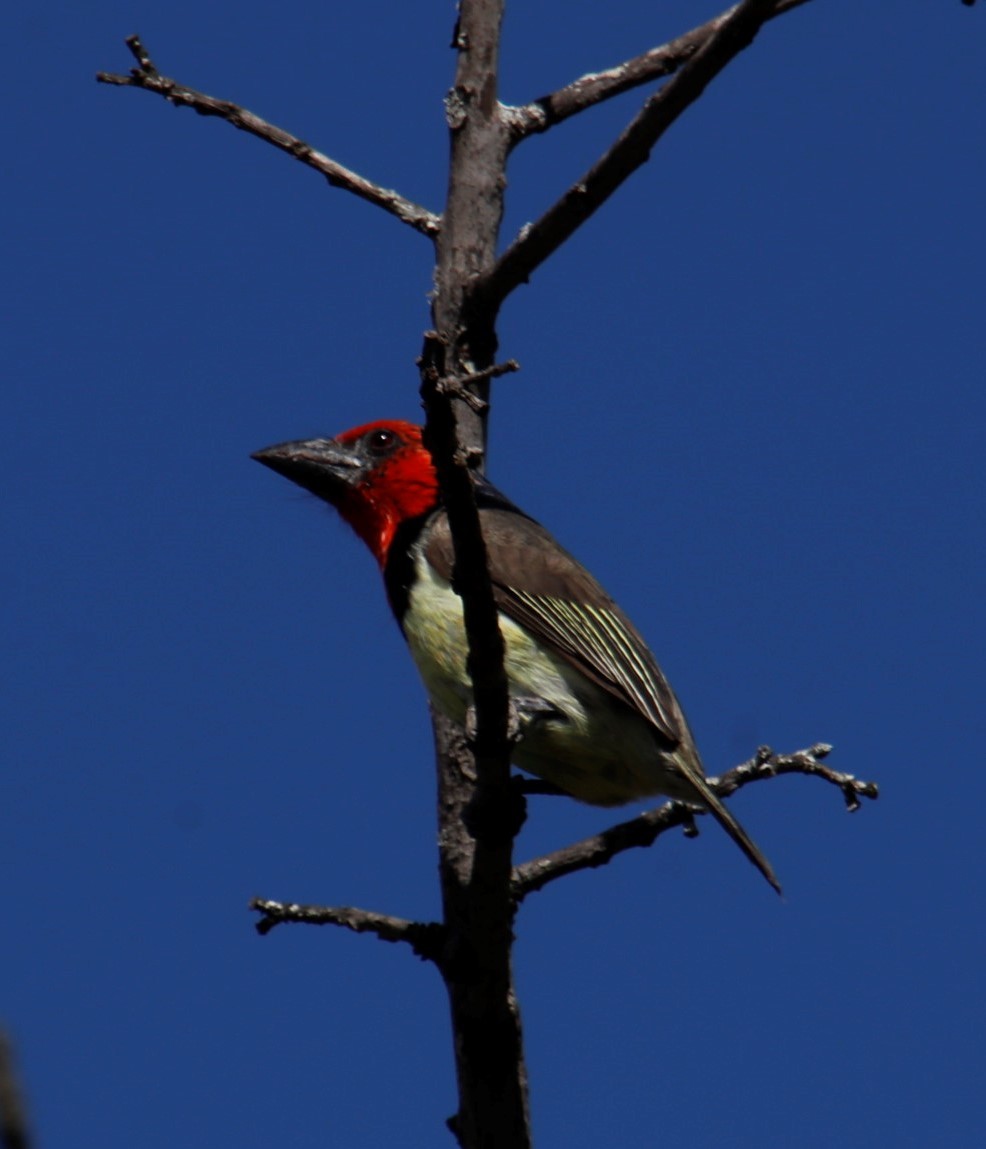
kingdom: Animalia
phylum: Chordata
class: Aves
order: Piciformes
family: Lybiidae
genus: Lybius
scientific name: Lybius torquatus
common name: Black-collared barbet
